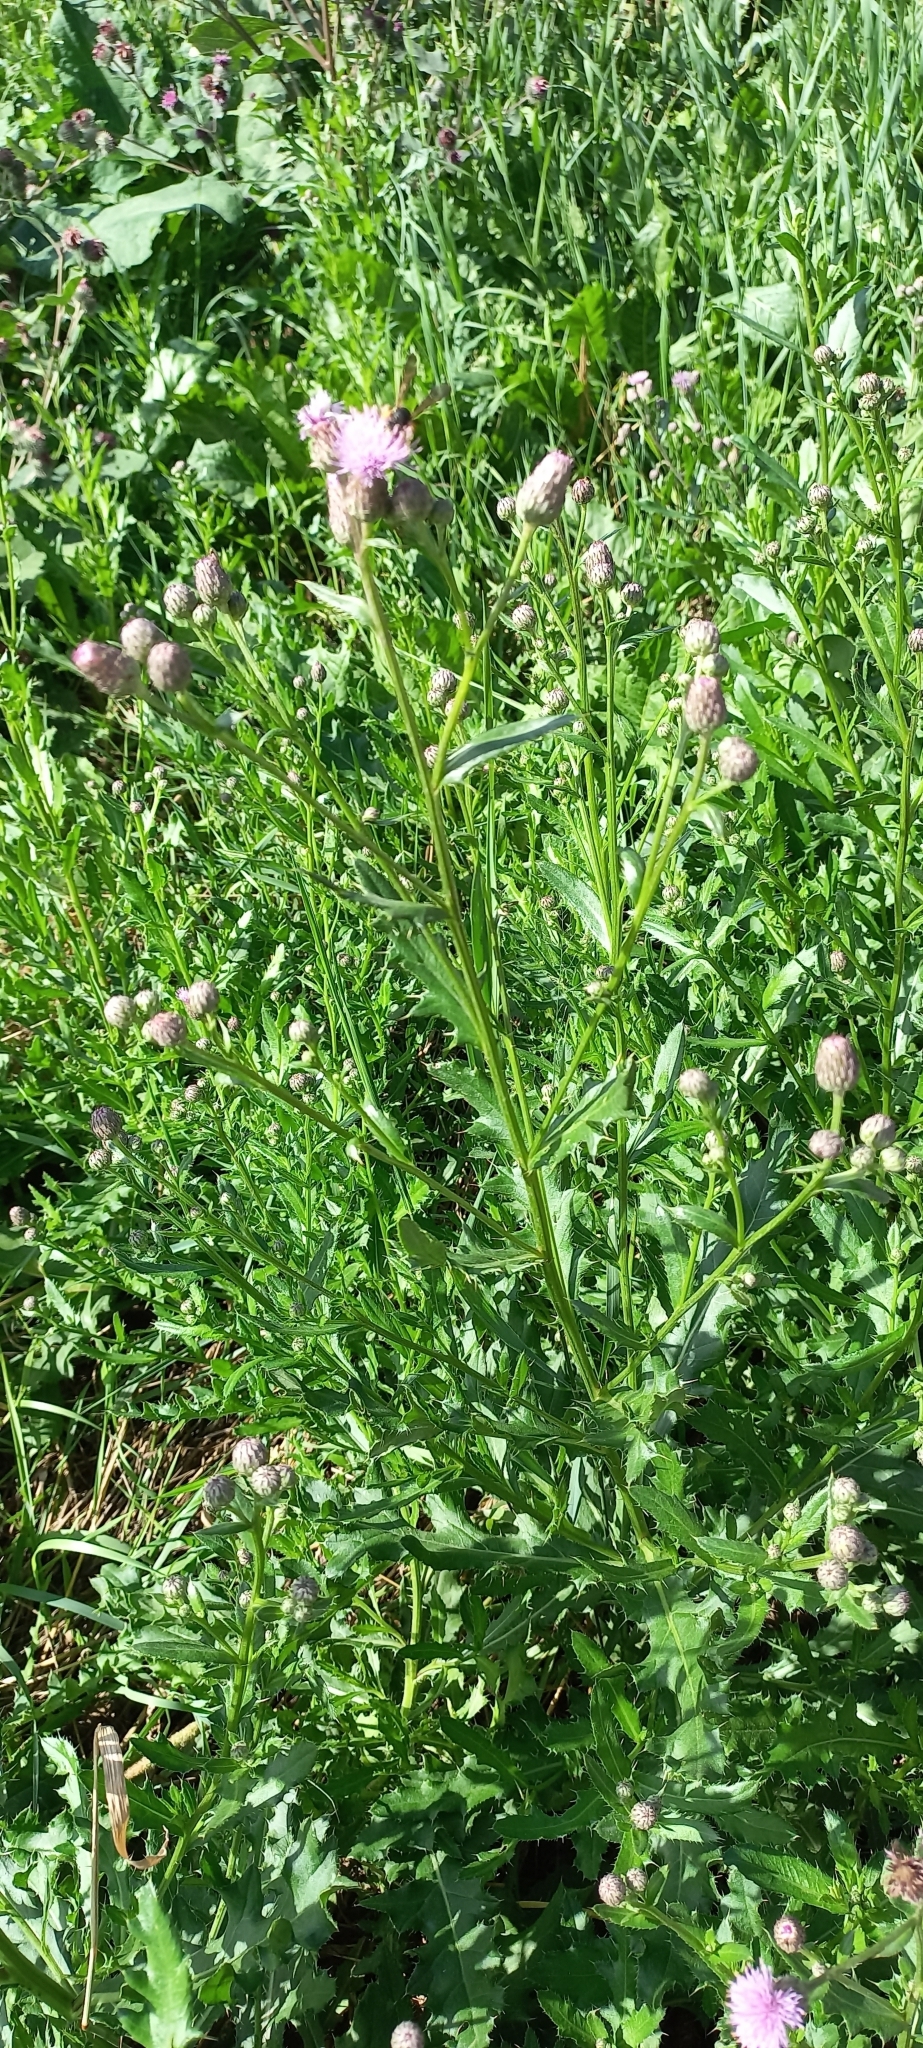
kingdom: Plantae
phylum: Tracheophyta
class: Magnoliopsida
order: Asterales
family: Asteraceae
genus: Cirsium
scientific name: Cirsium arvense
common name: Creeping thistle
